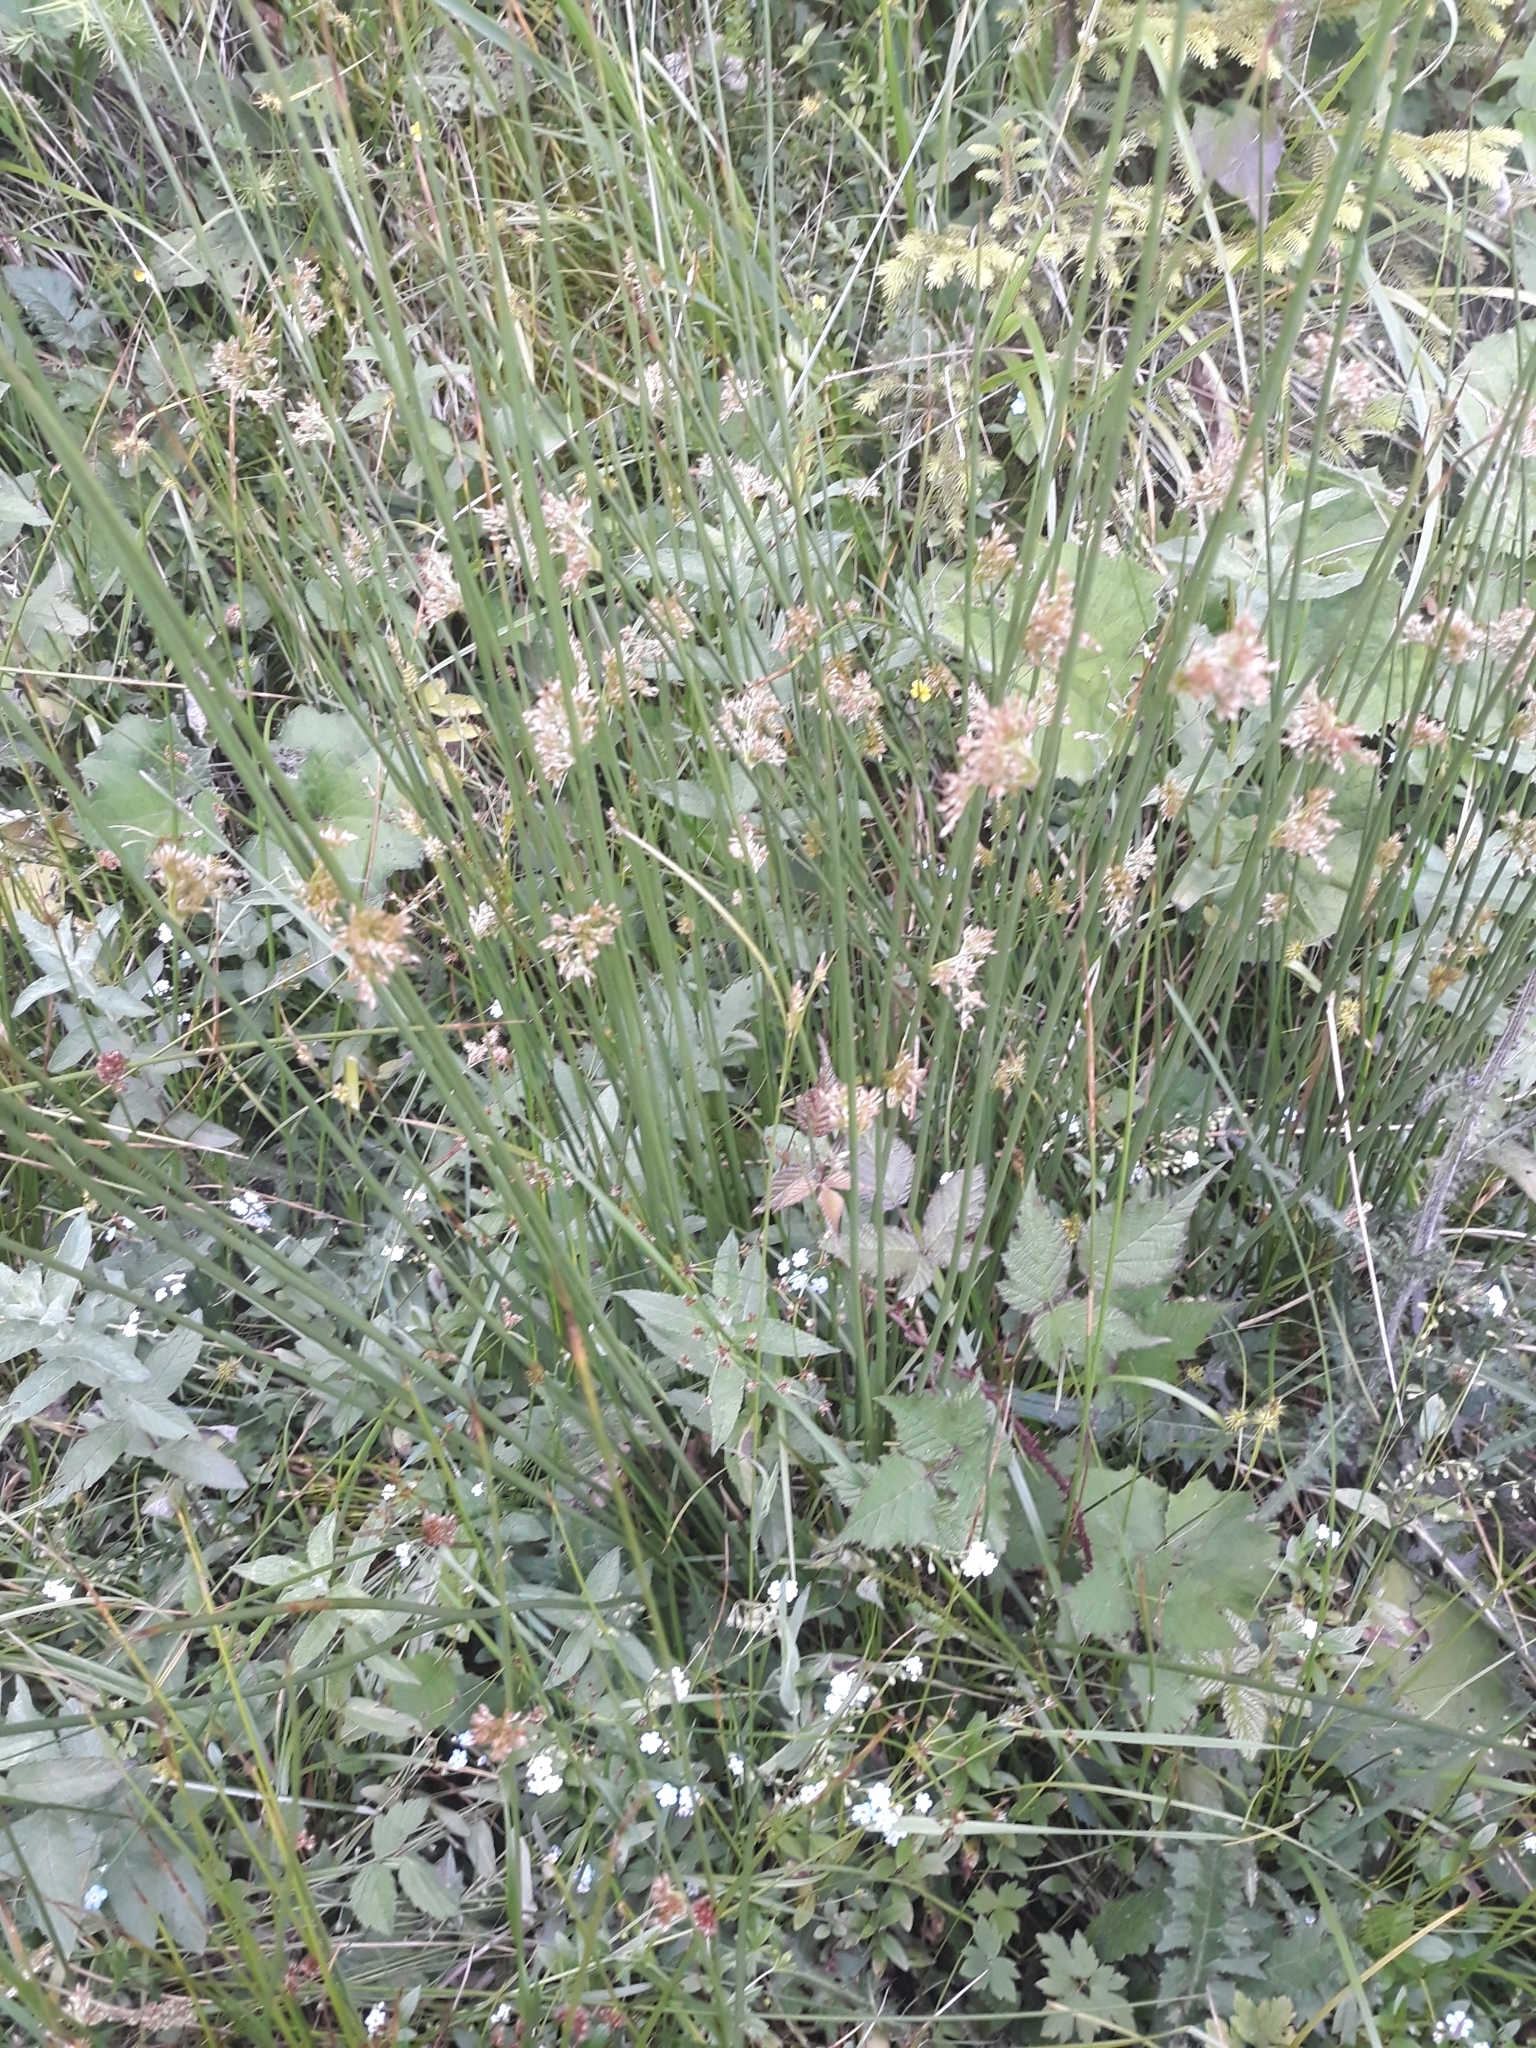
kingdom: Plantae
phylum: Tracheophyta
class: Liliopsida
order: Poales
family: Juncaceae
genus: Juncus
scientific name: Juncus effusus
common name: Soft rush
